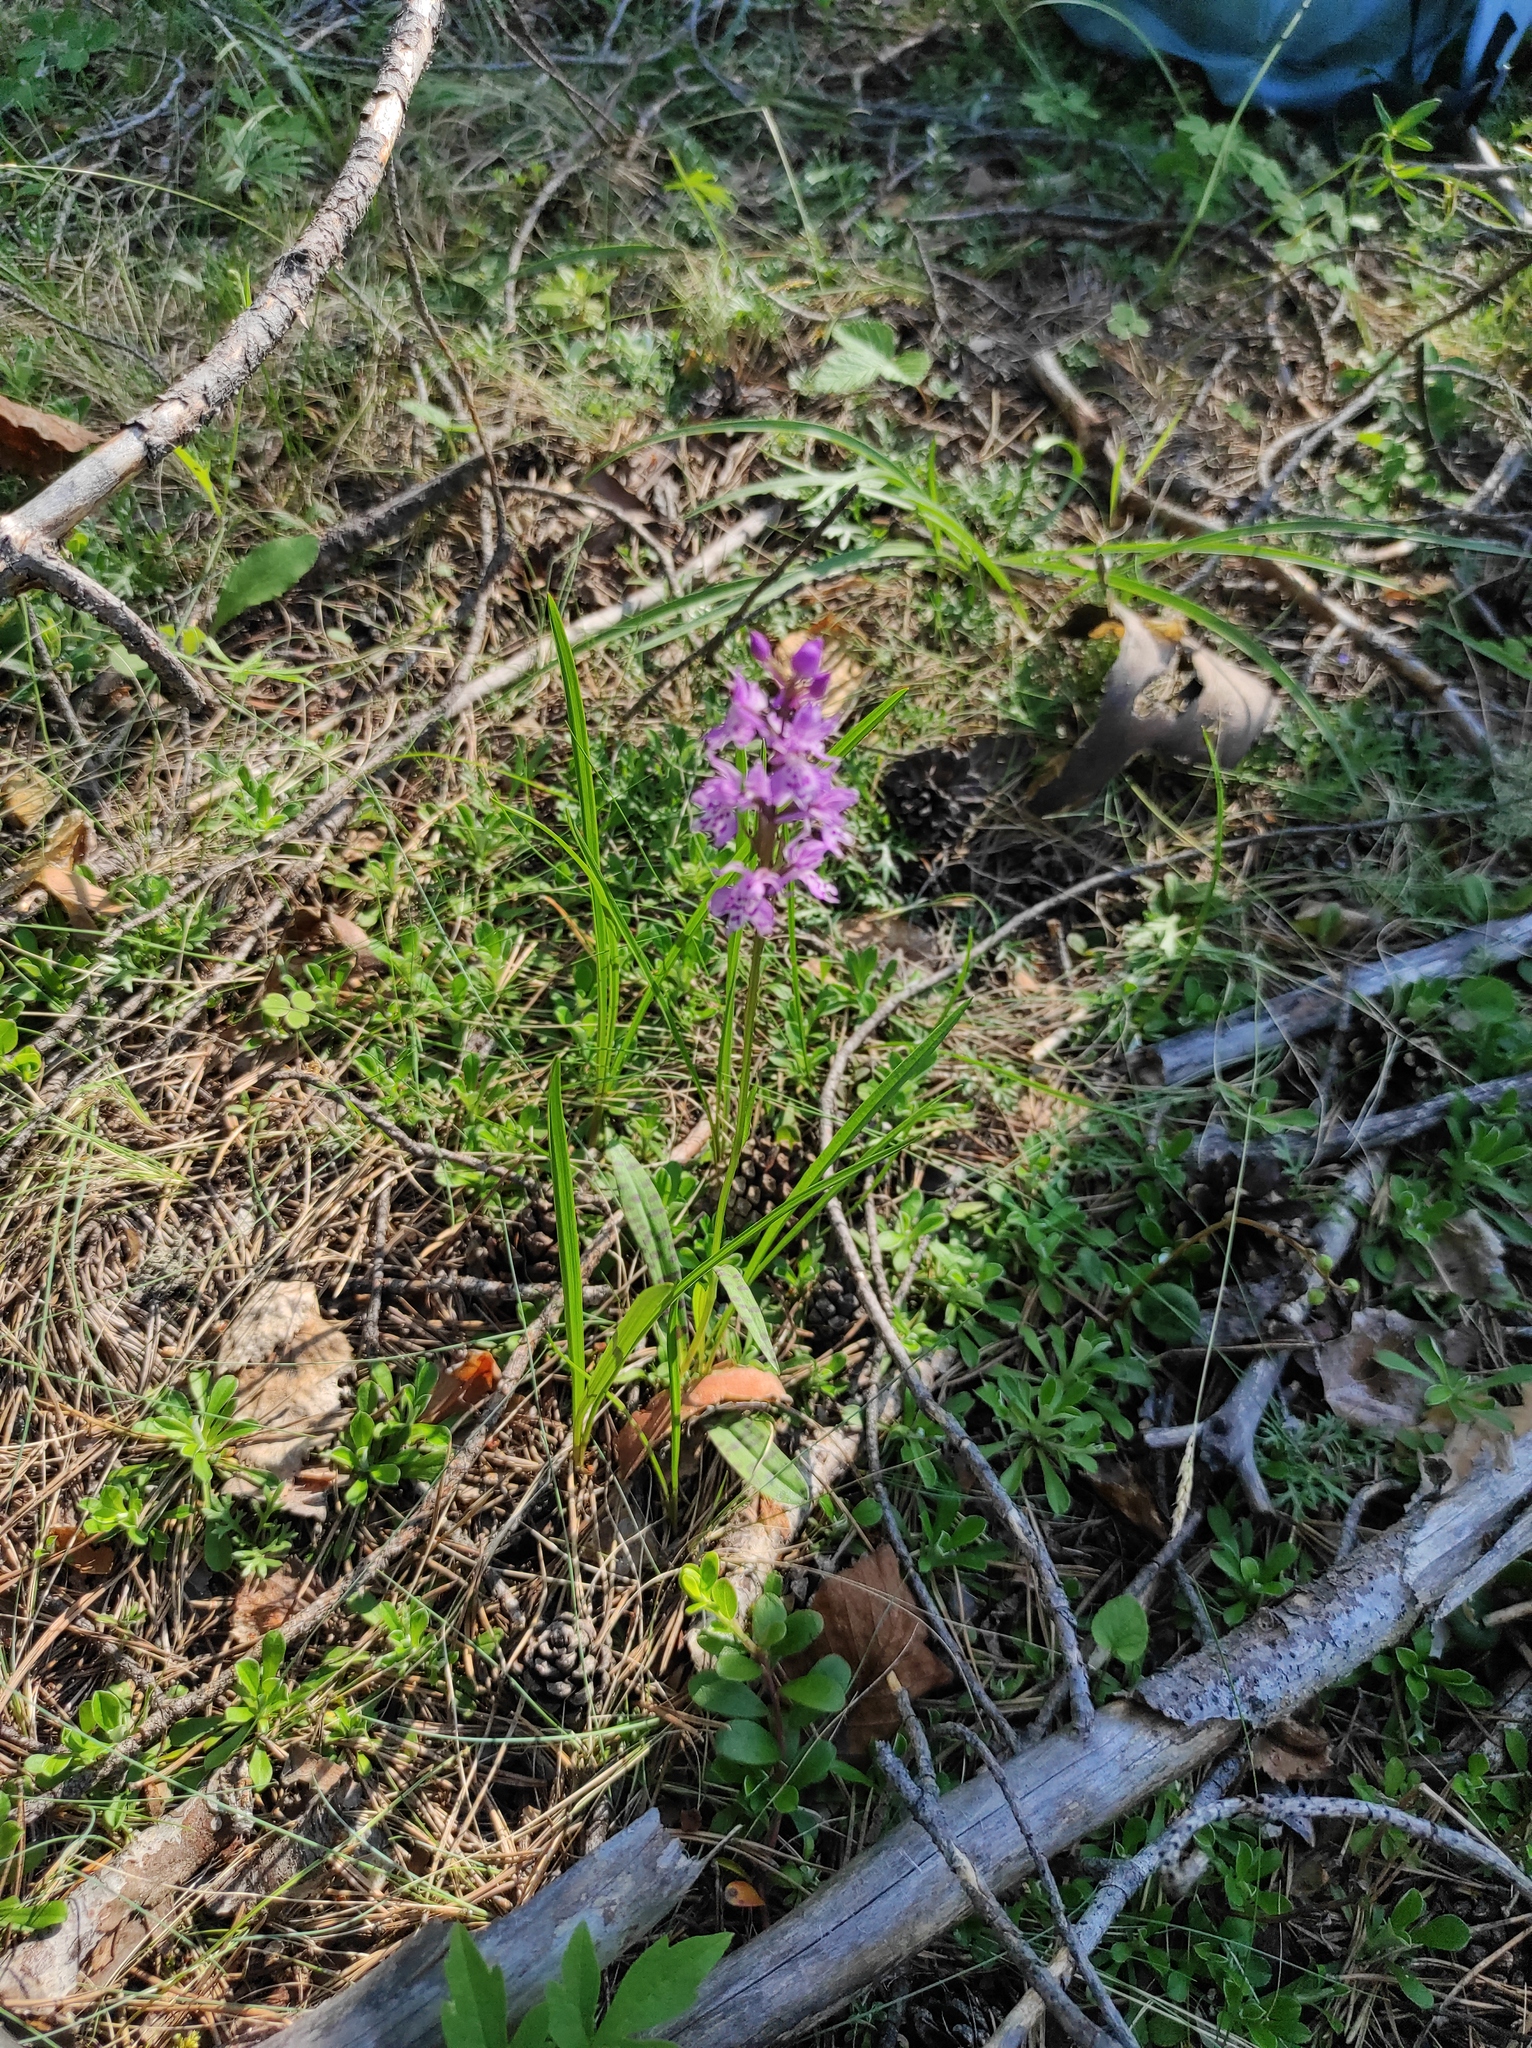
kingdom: Plantae
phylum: Tracheophyta
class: Liliopsida
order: Asparagales
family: Orchidaceae
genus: Dactylorhiza
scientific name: Dactylorhiza maculata
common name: Heath spotted-orchid
